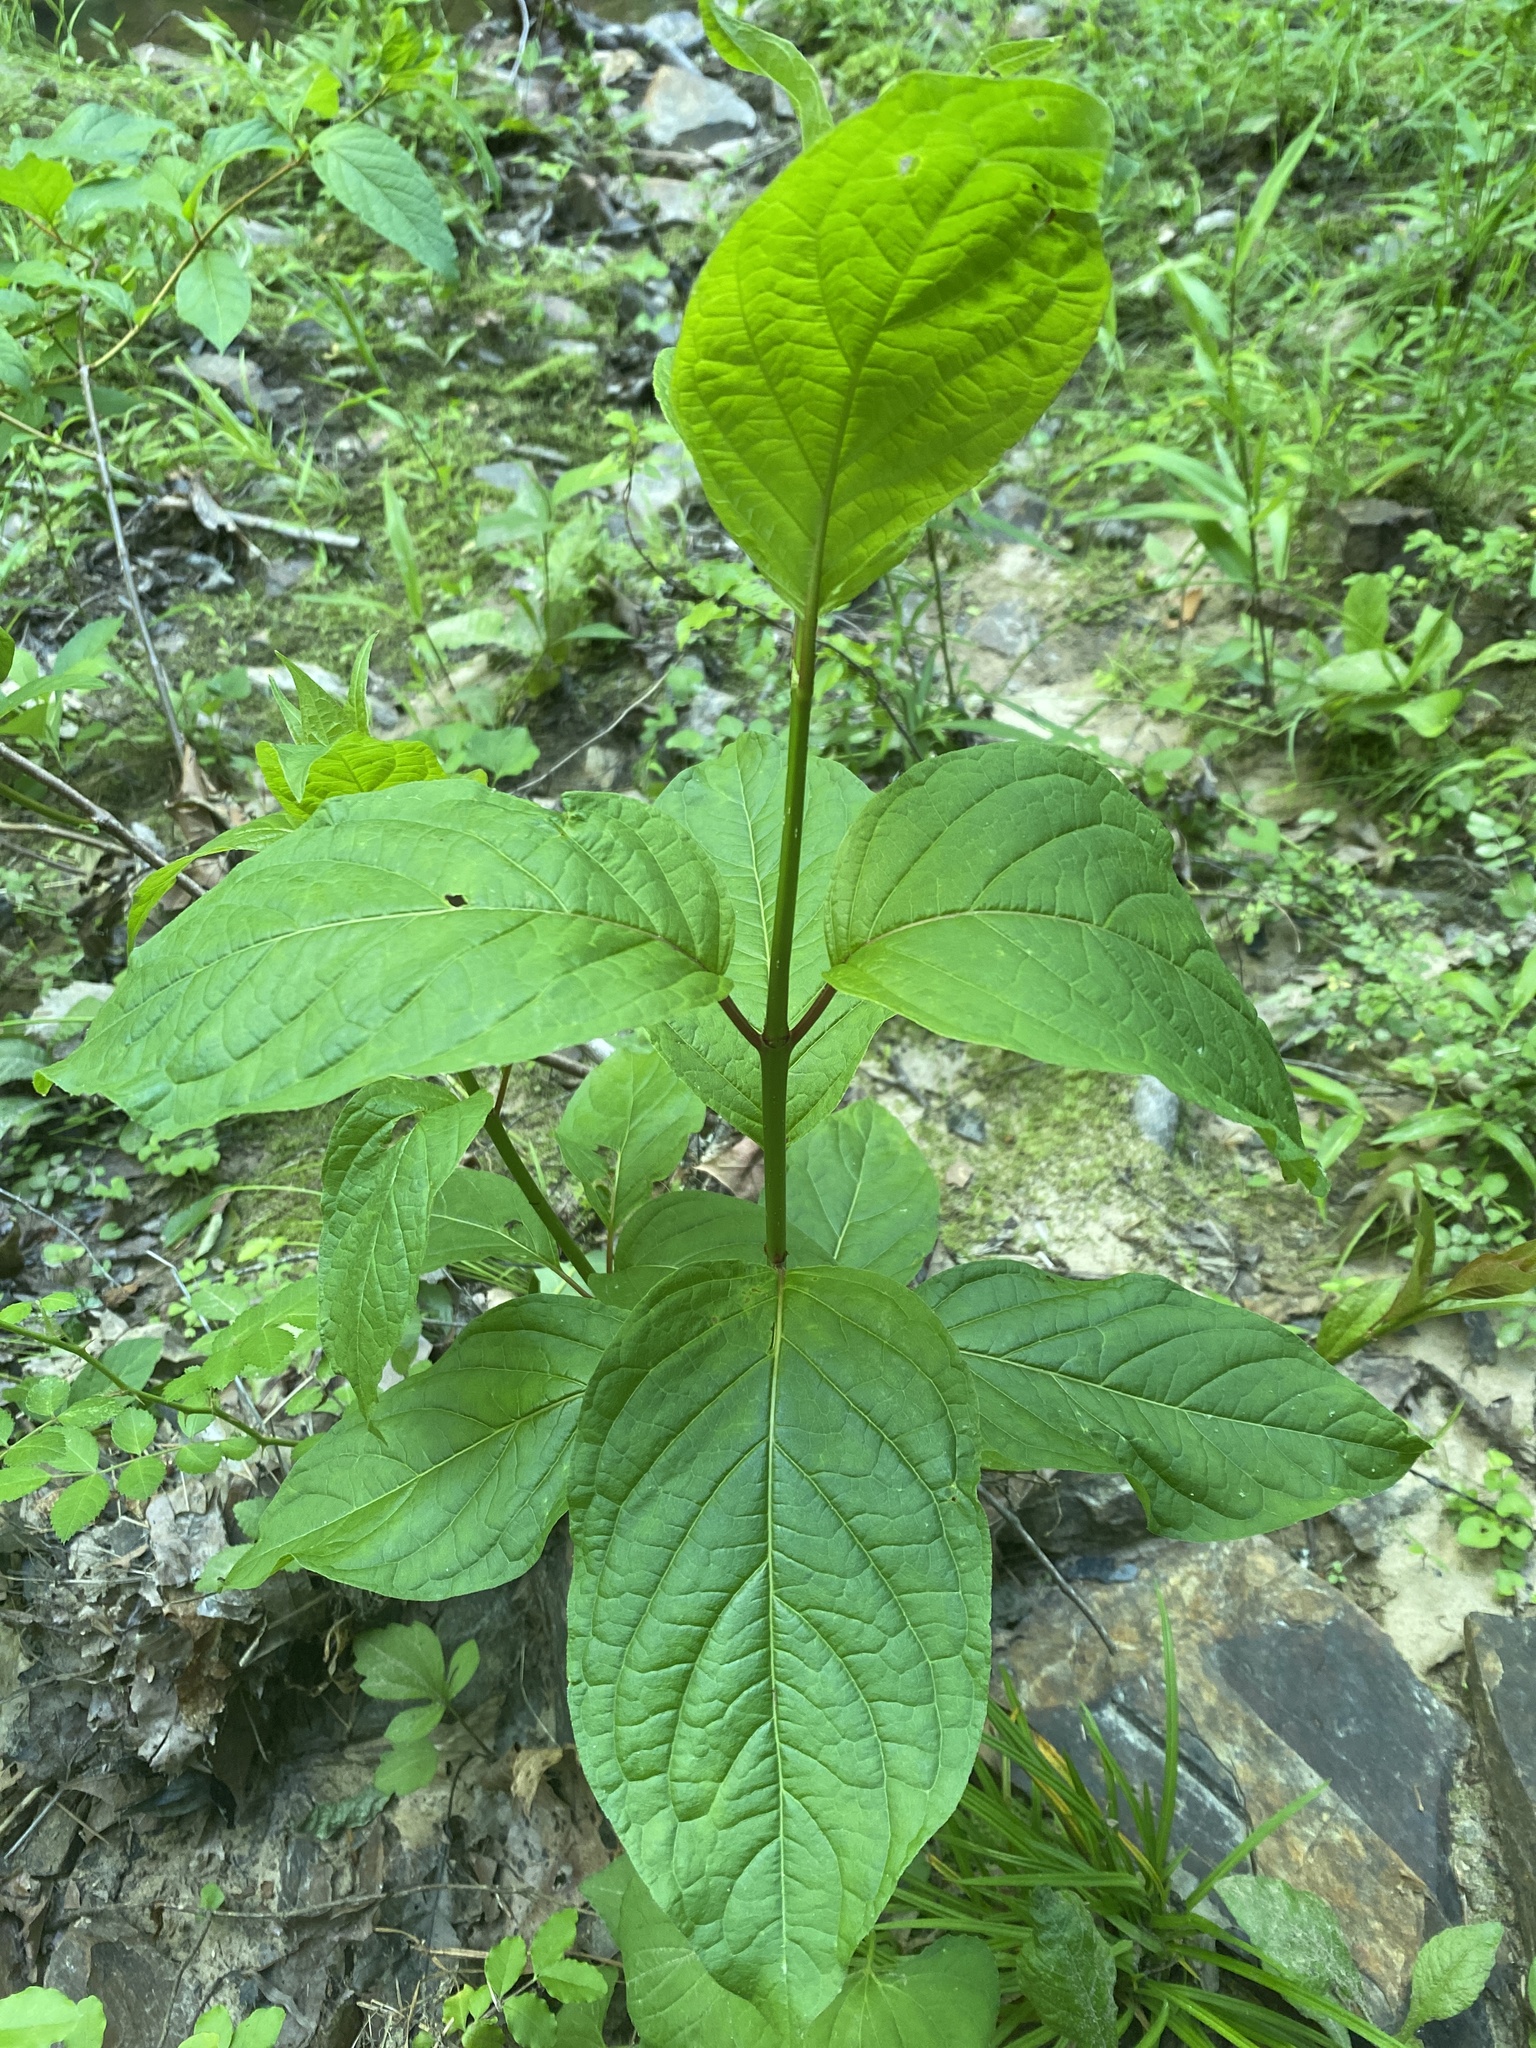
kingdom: Plantae
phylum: Tracheophyta
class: Magnoliopsida
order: Gentianales
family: Rubiaceae
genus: Cephalanthus
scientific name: Cephalanthus occidentalis
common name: Button-willow
